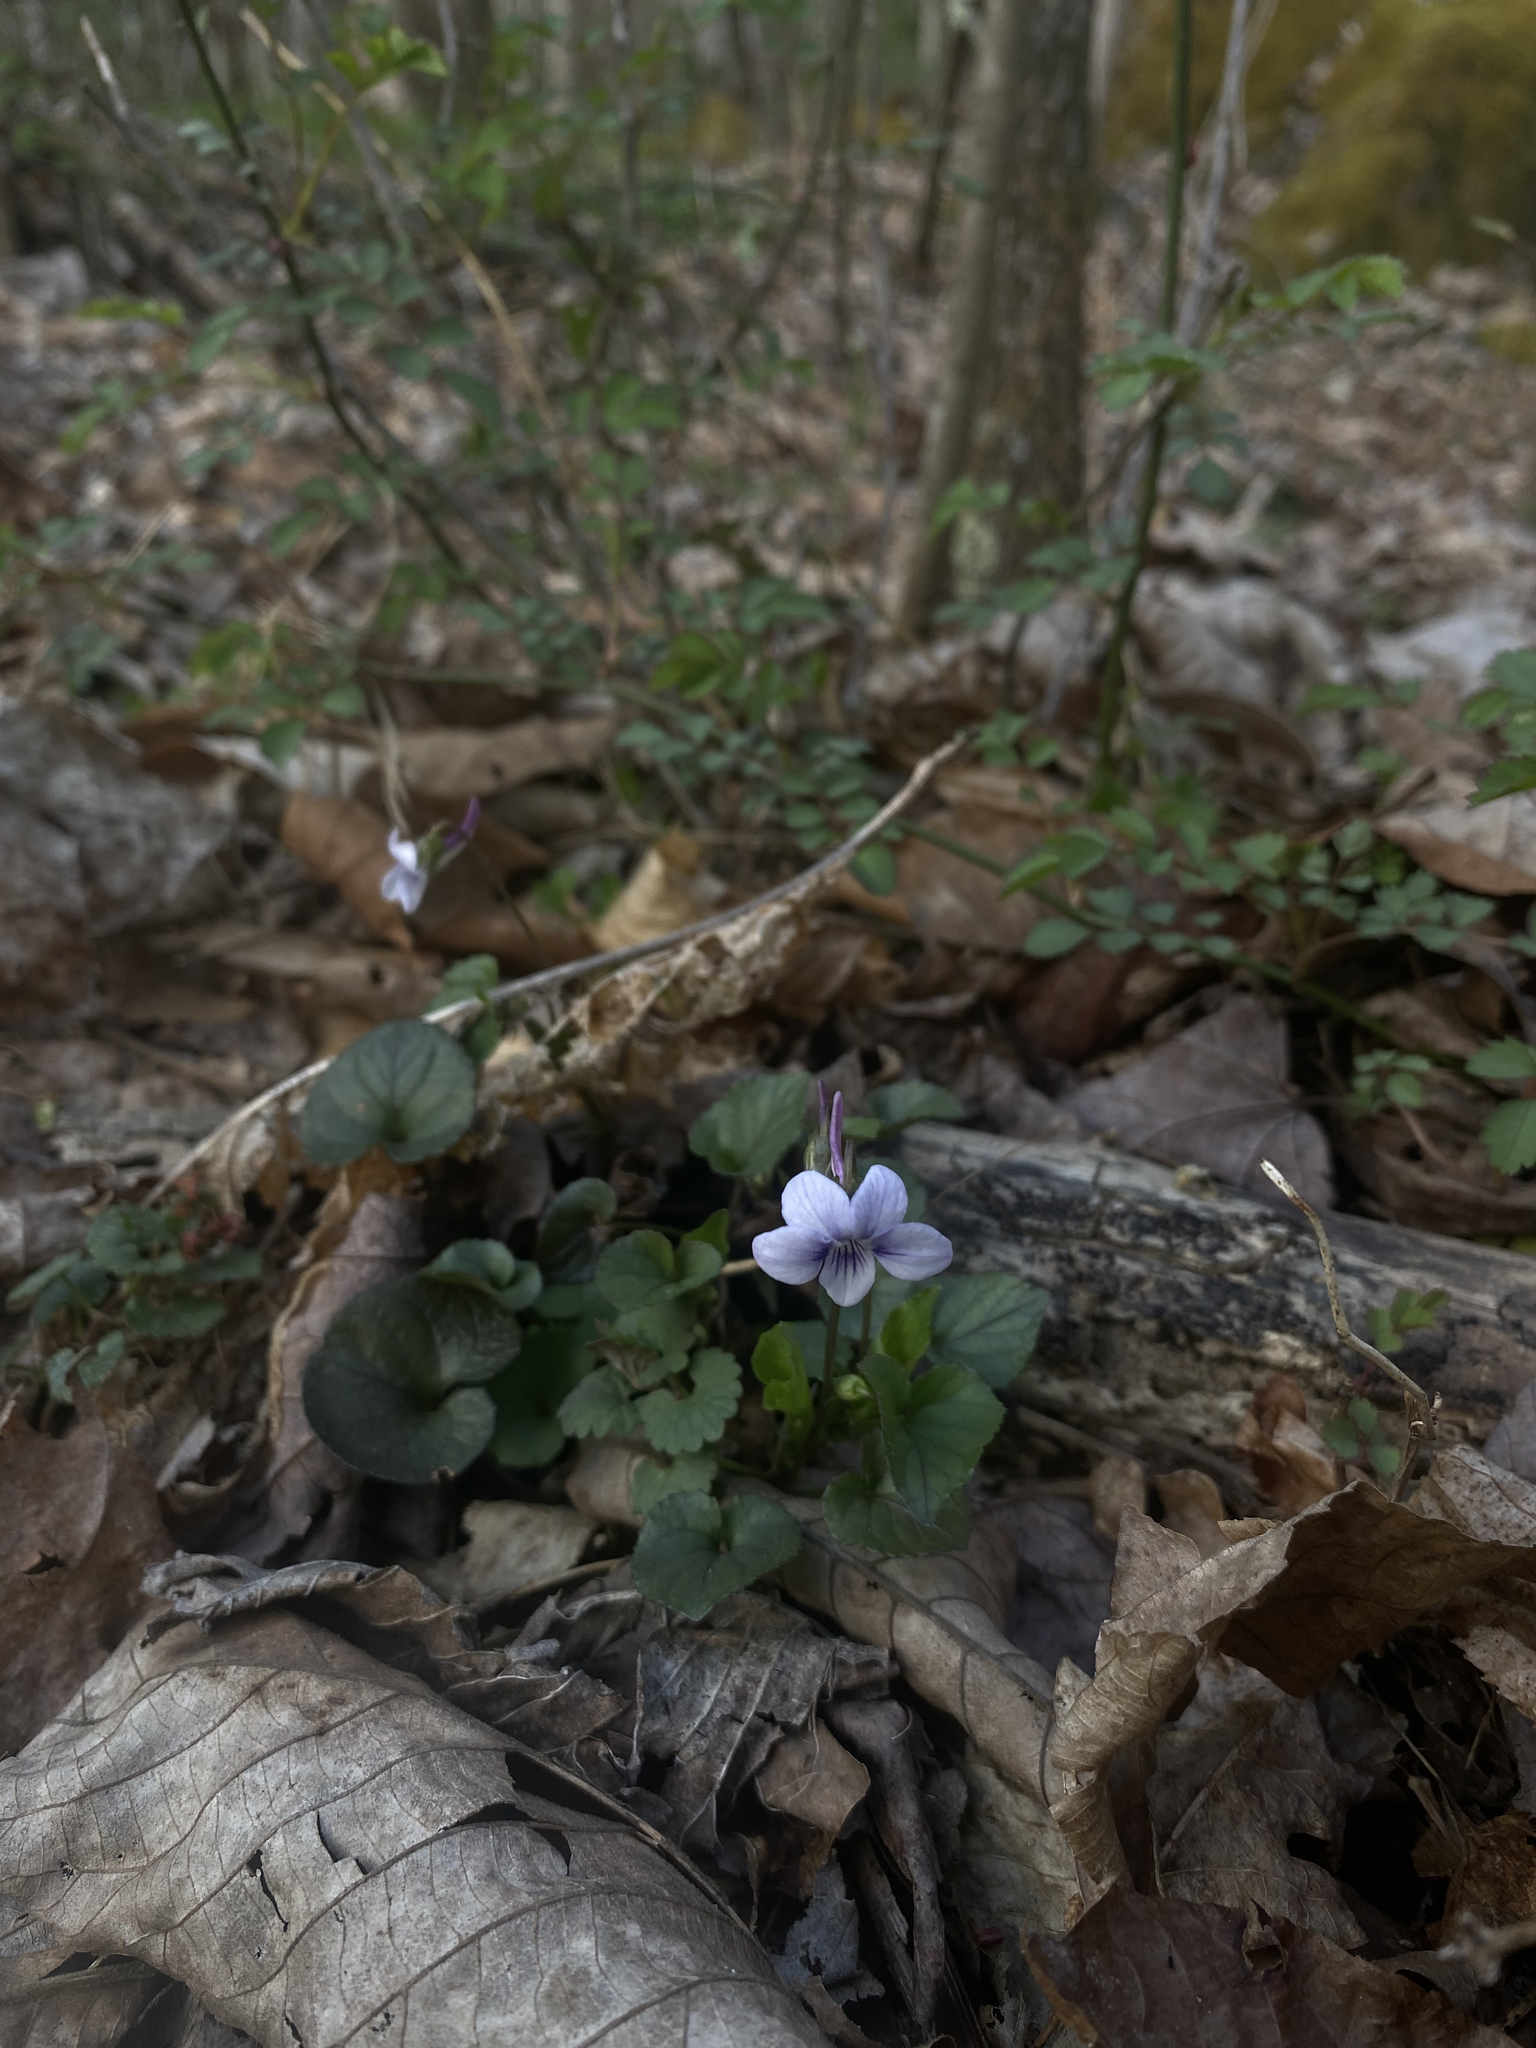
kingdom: Plantae
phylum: Tracheophyta
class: Magnoliopsida
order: Malpighiales
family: Violaceae
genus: Viola
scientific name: Viola rostrata
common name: Long-spur violet
